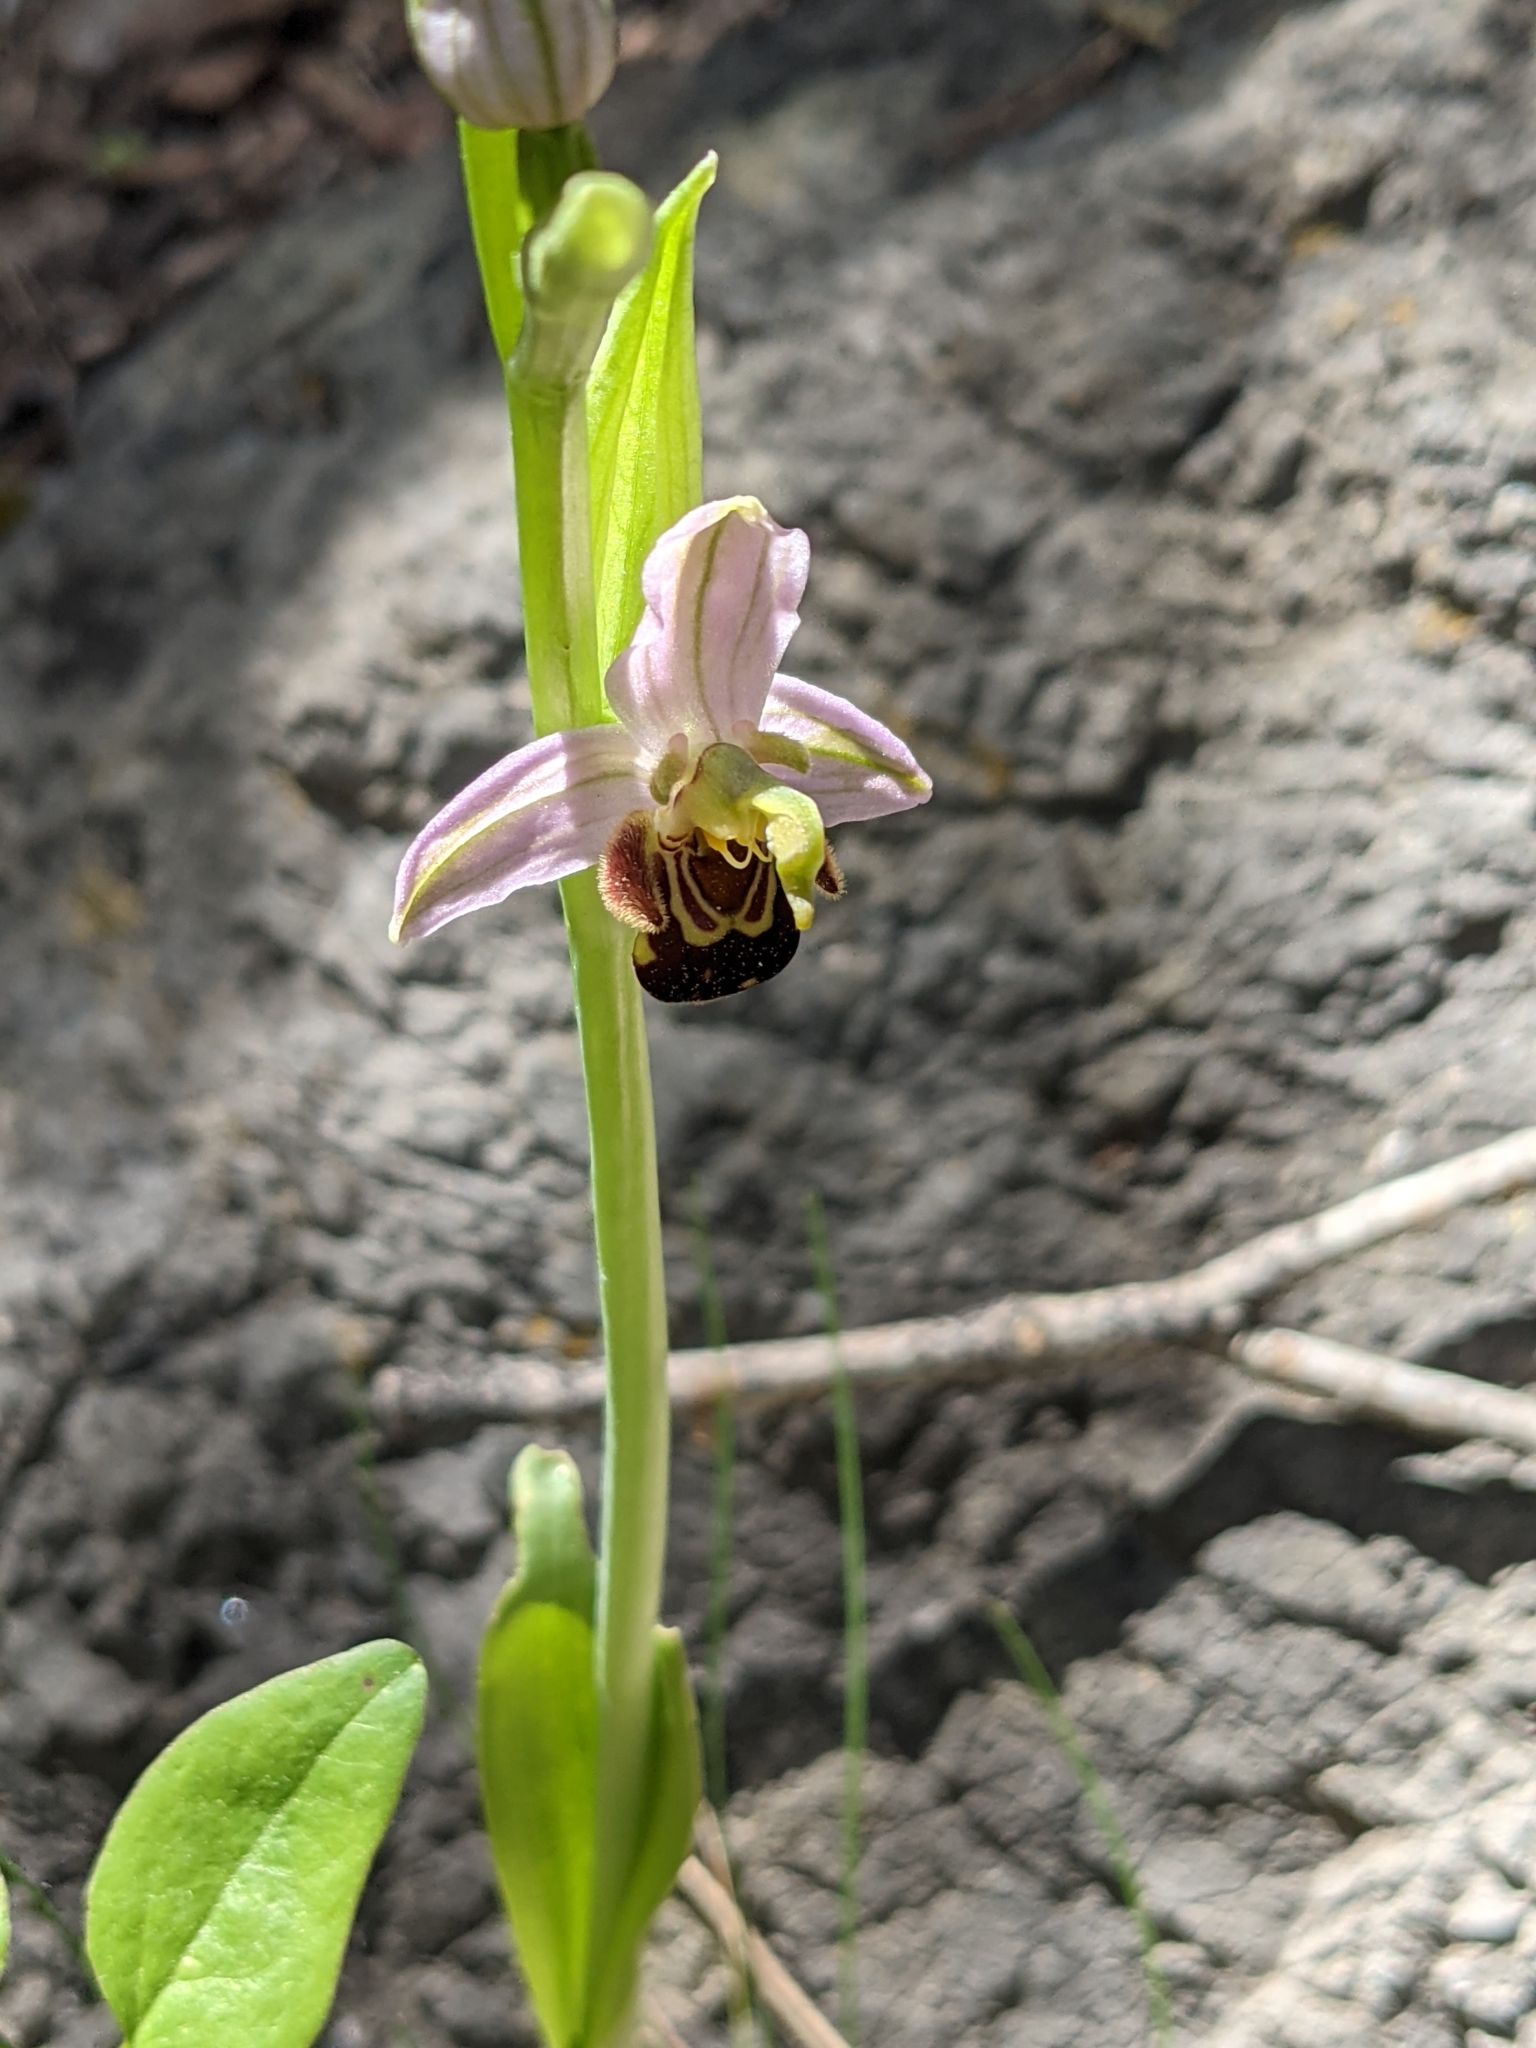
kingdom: Plantae
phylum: Tracheophyta
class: Liliopsida
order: Asparagales
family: Orchidaceae
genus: Ophrys
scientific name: Ophrys apifera
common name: Bee orchid
